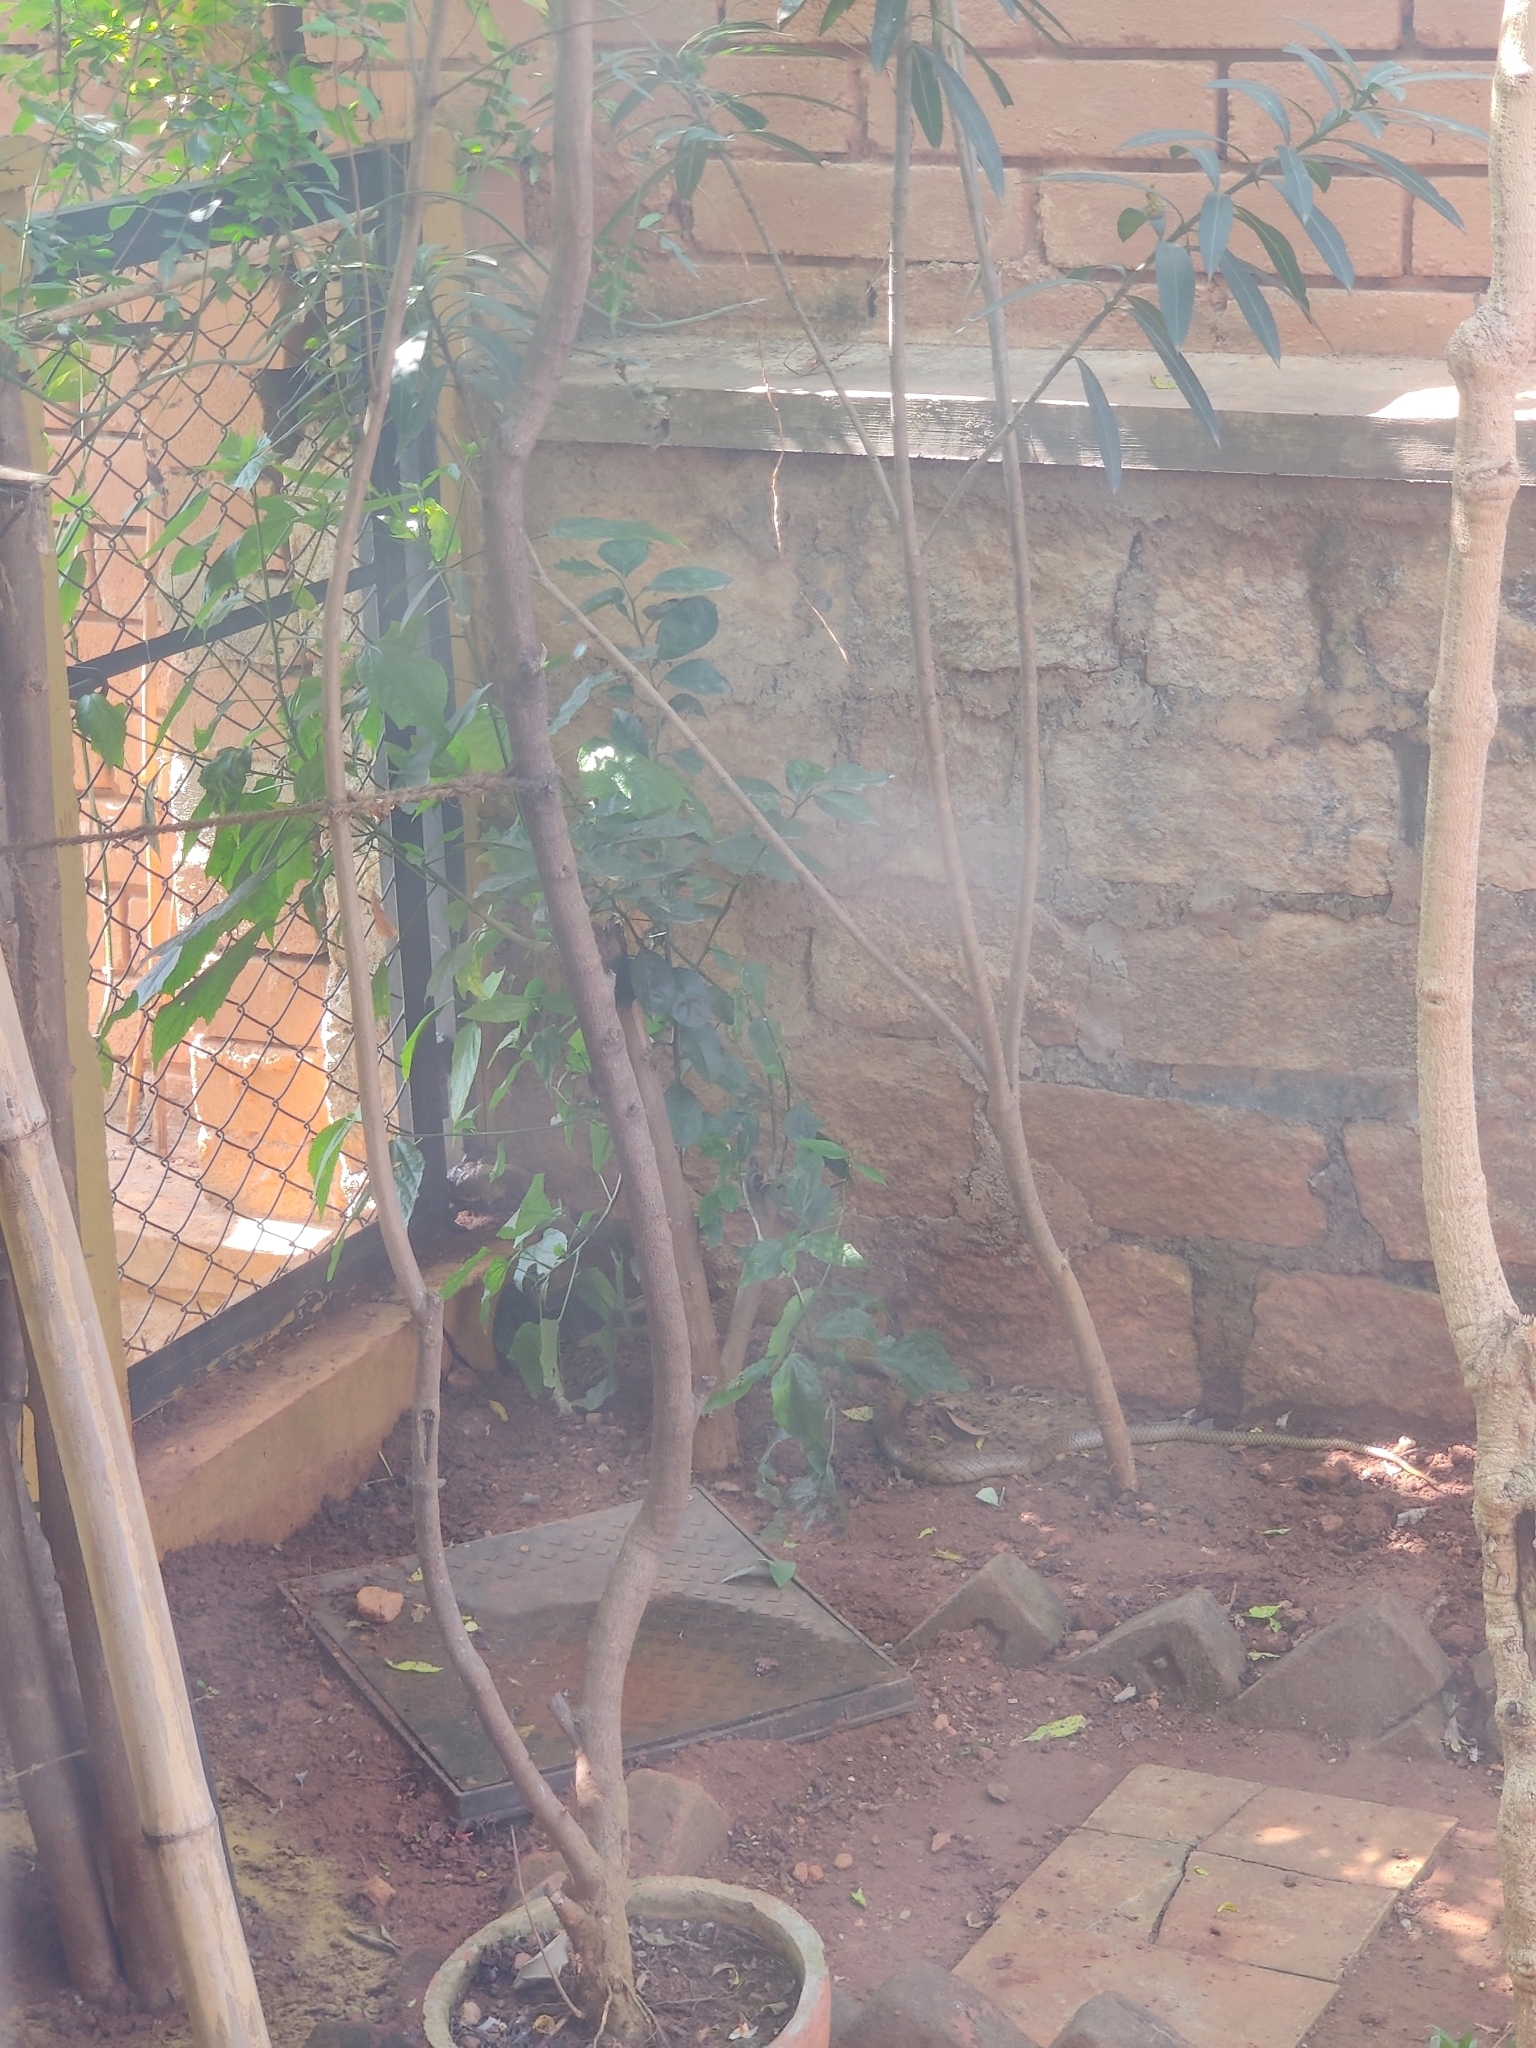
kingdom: Animalia
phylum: Chordata
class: Squamata
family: Colubridae
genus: Ptyas
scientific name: Ptyas mucosa
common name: Oriental ratsnake
